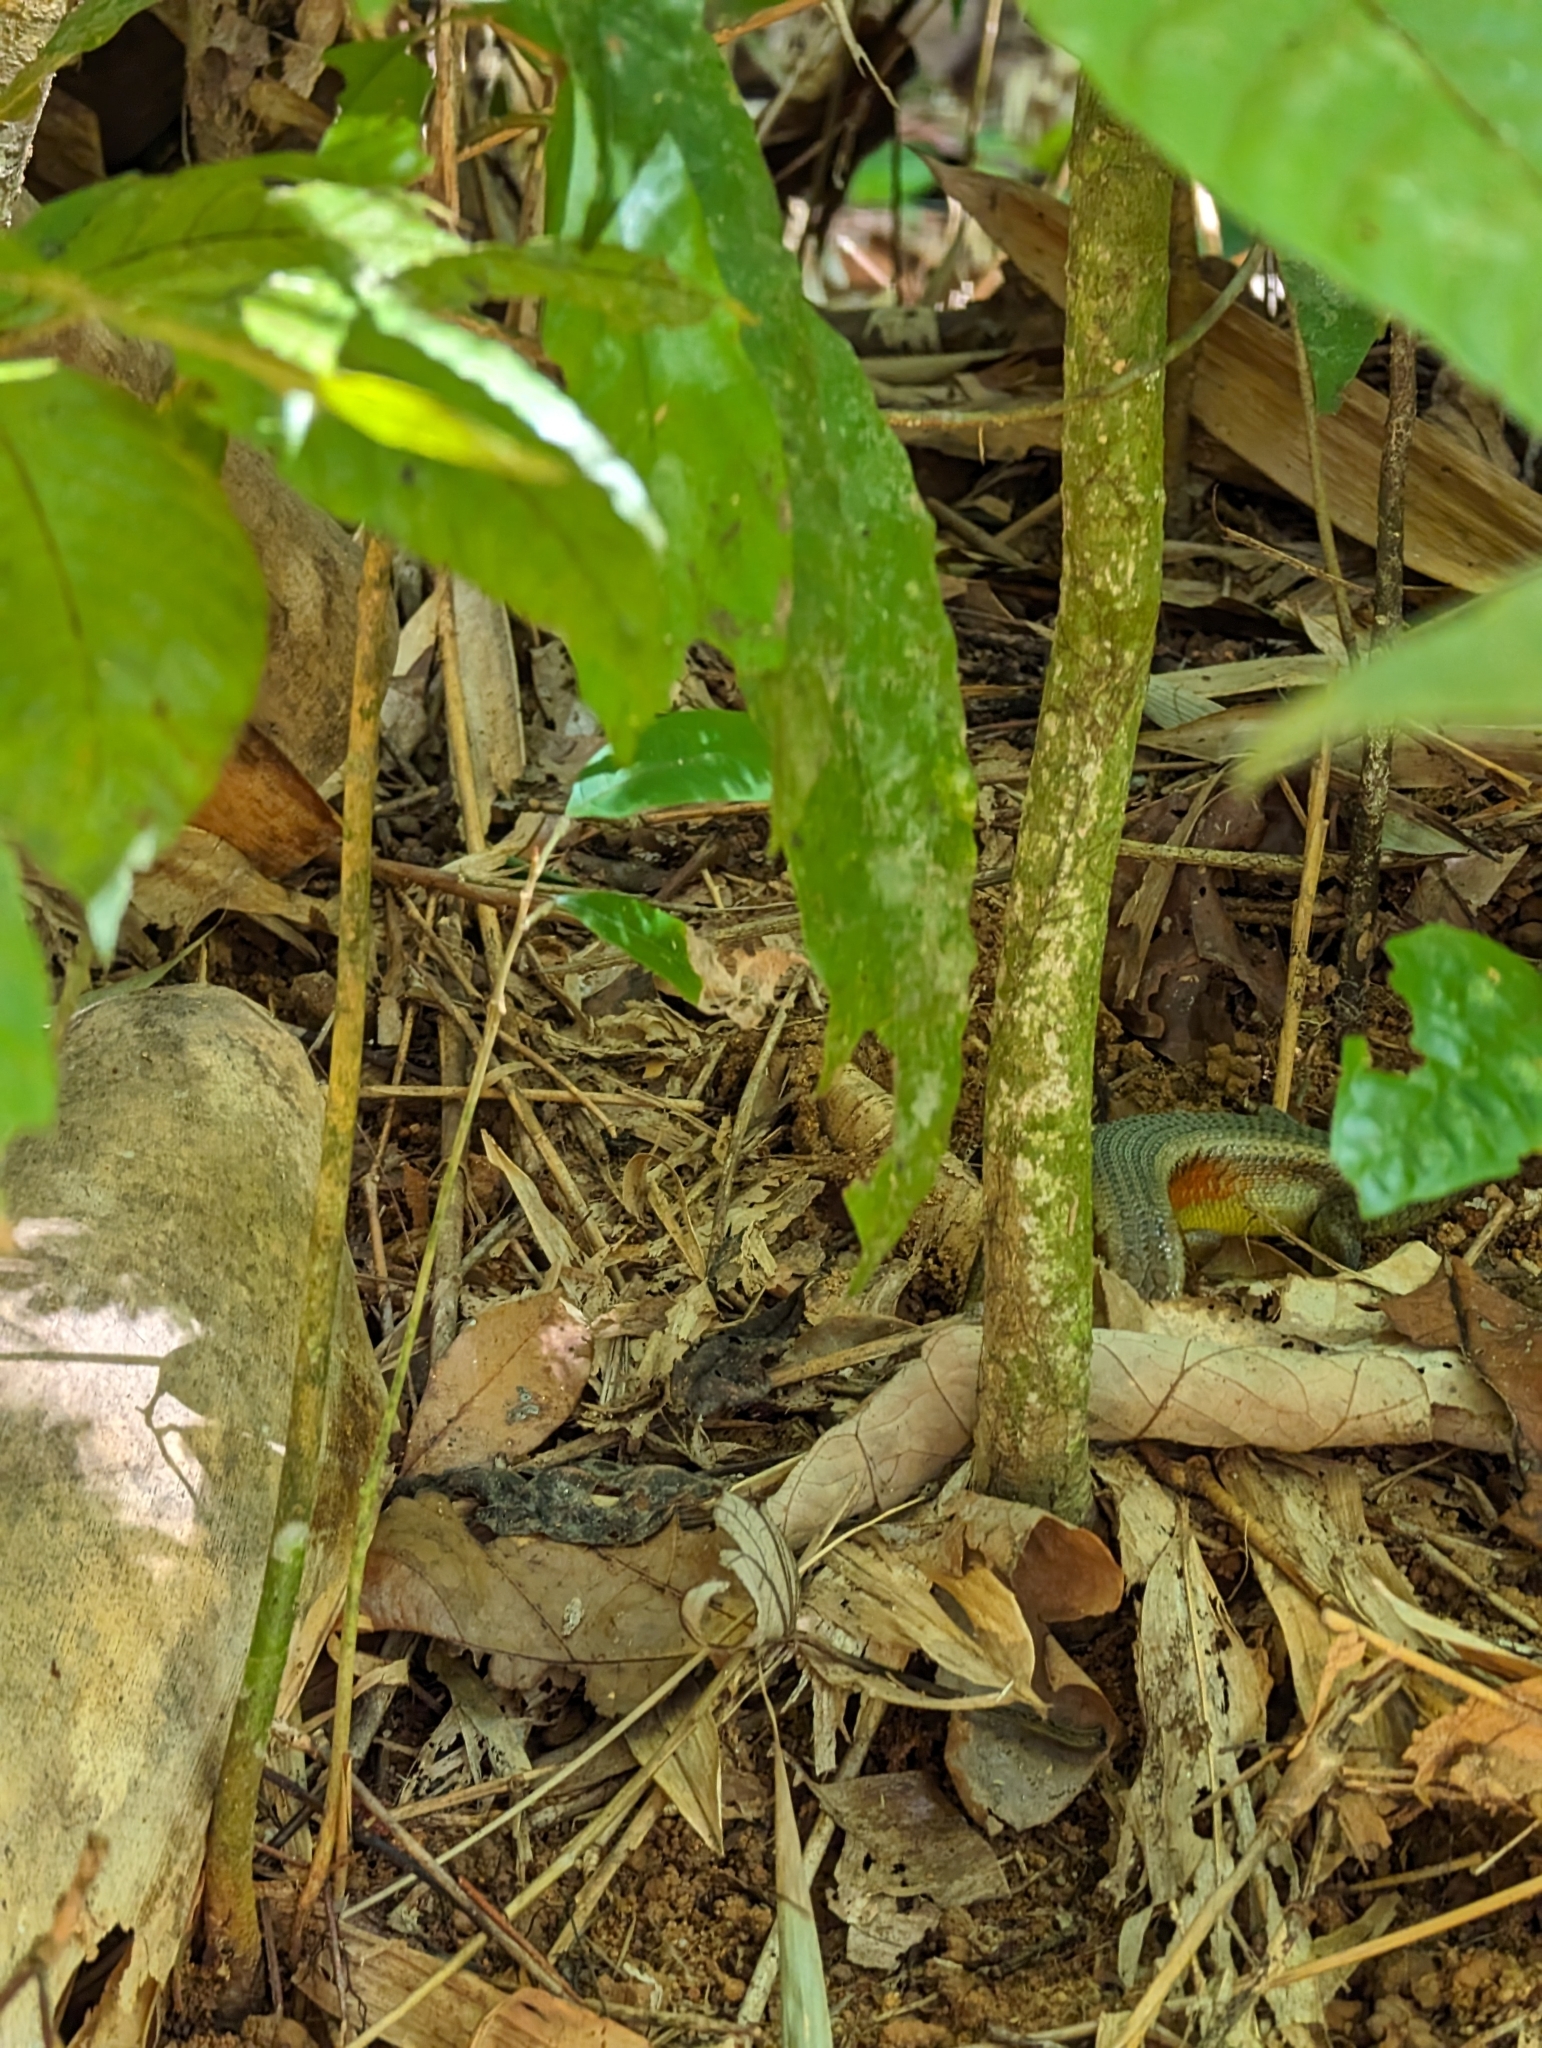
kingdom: Animalia
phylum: Chordata
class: Squamata
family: Scincidae
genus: Eutropis
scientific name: Eutropis multifasciata
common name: Common mabuya
